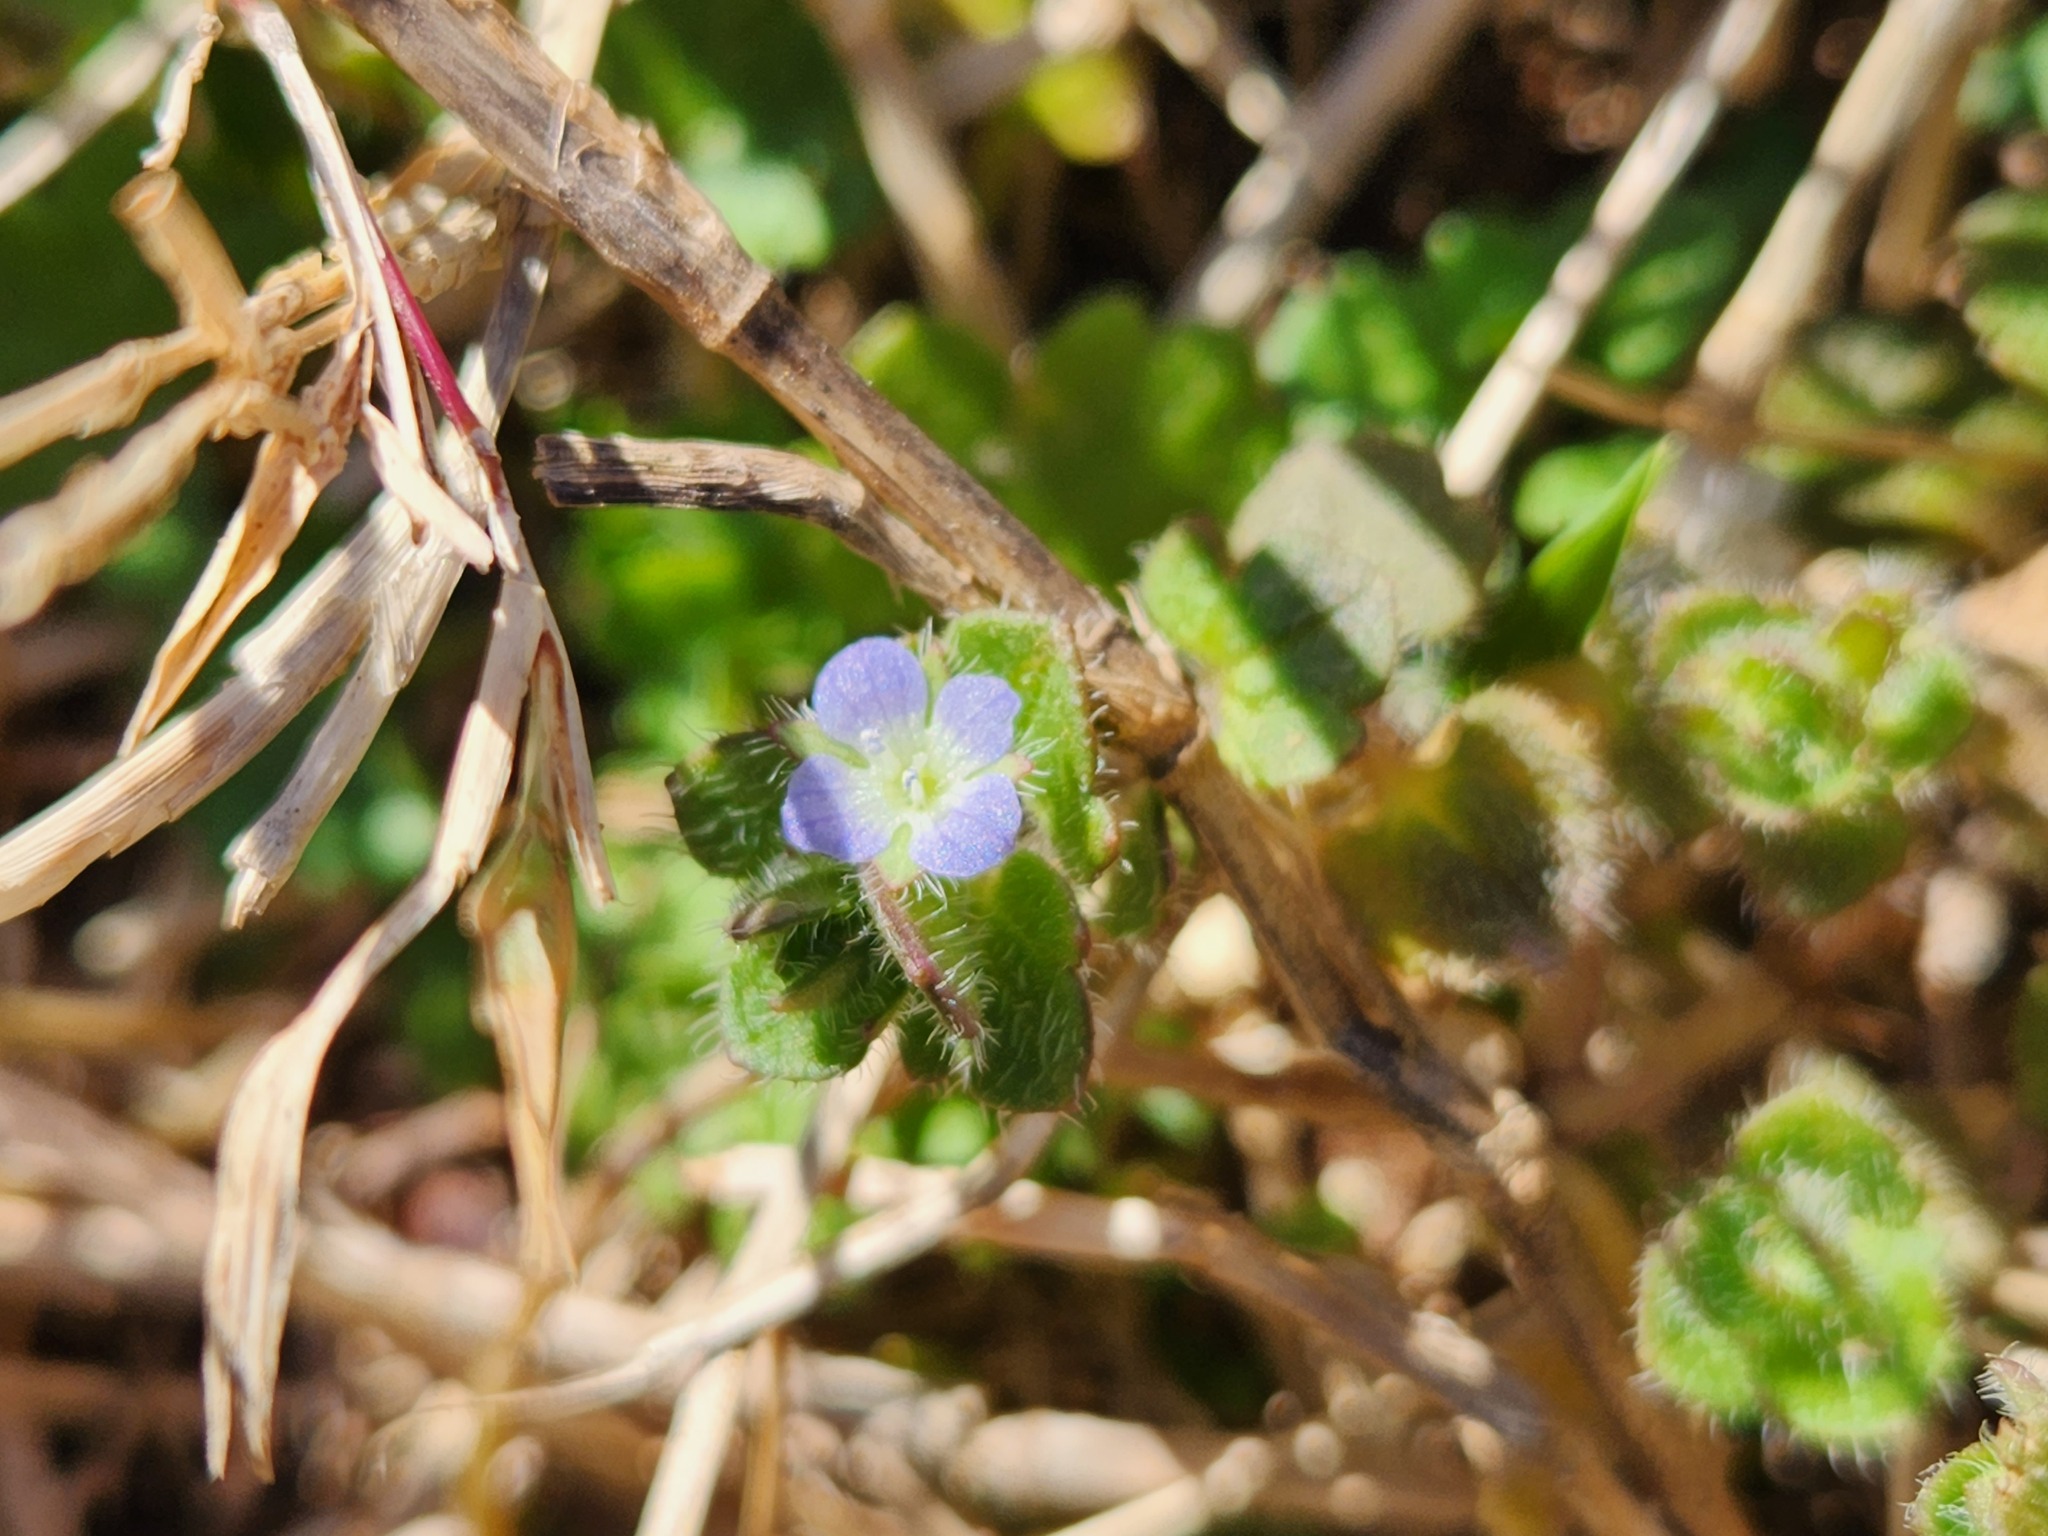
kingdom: Plantae
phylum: Tracheophyta
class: Magnoliopsida
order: Lamiales
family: Plantaginaceae
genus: Veronica
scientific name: Veronica hederifolia
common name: Ivy-leaved speedwell
